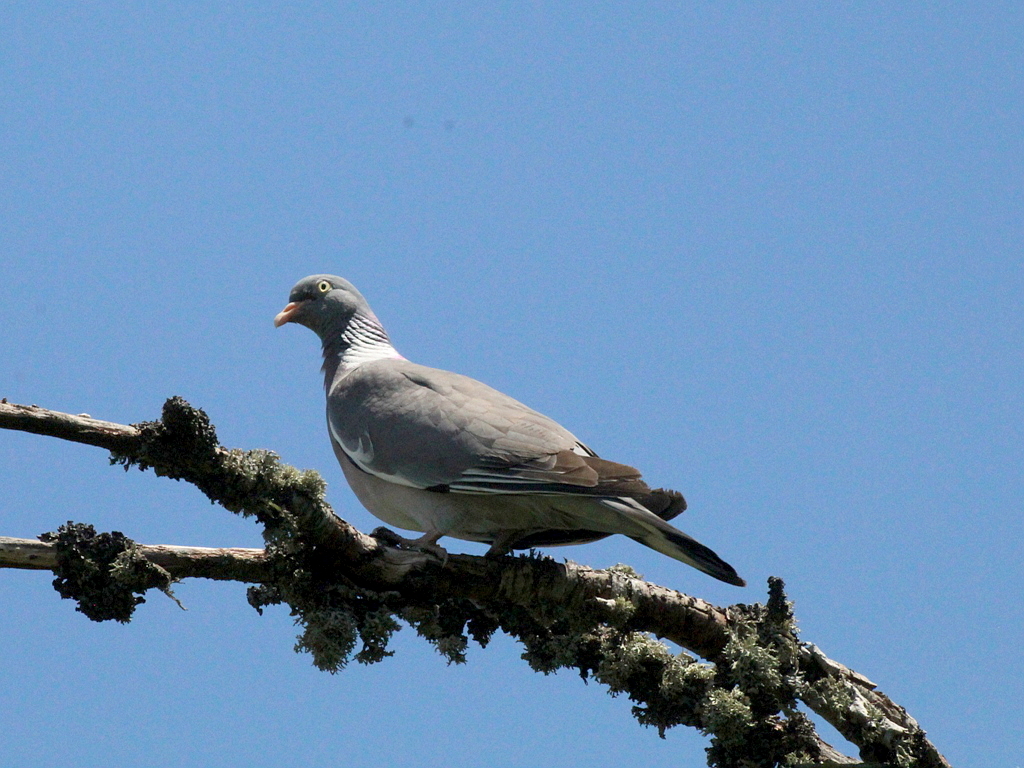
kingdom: Animalia
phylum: Chordata
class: Aves
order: Columbiformes
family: Columbidae
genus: Columba
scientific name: Columba palumbus
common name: Common wood pigeon
